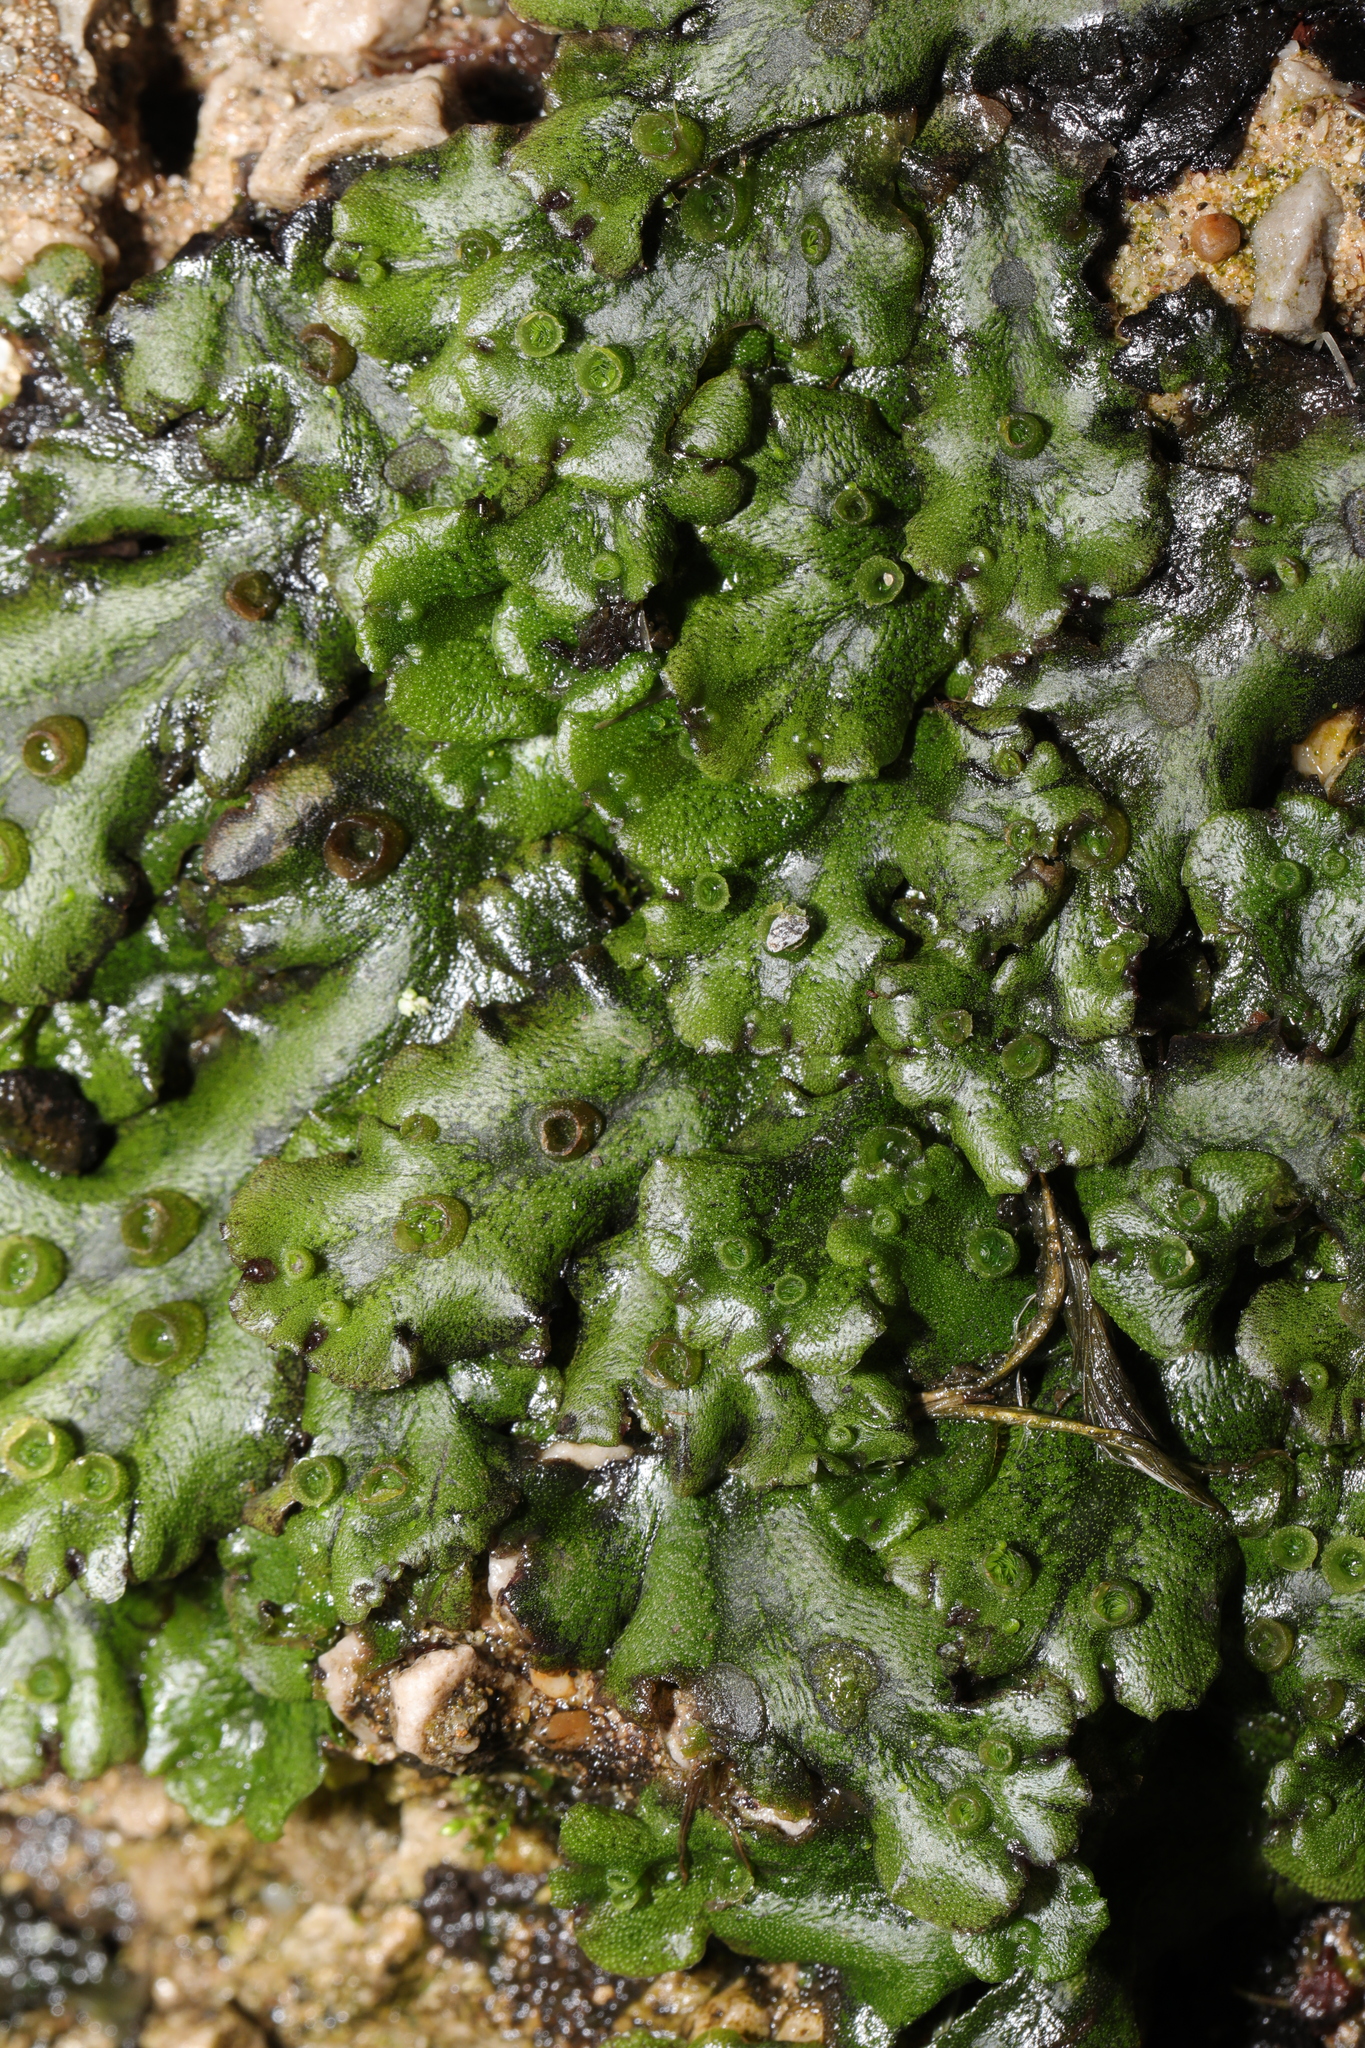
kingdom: Plantae
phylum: Marchantiophyta
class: Marchantiopsida
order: Marchantiales
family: Marchantiaceae
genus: Marchantia
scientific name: Marchantia polymorpha
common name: Common liverwort
